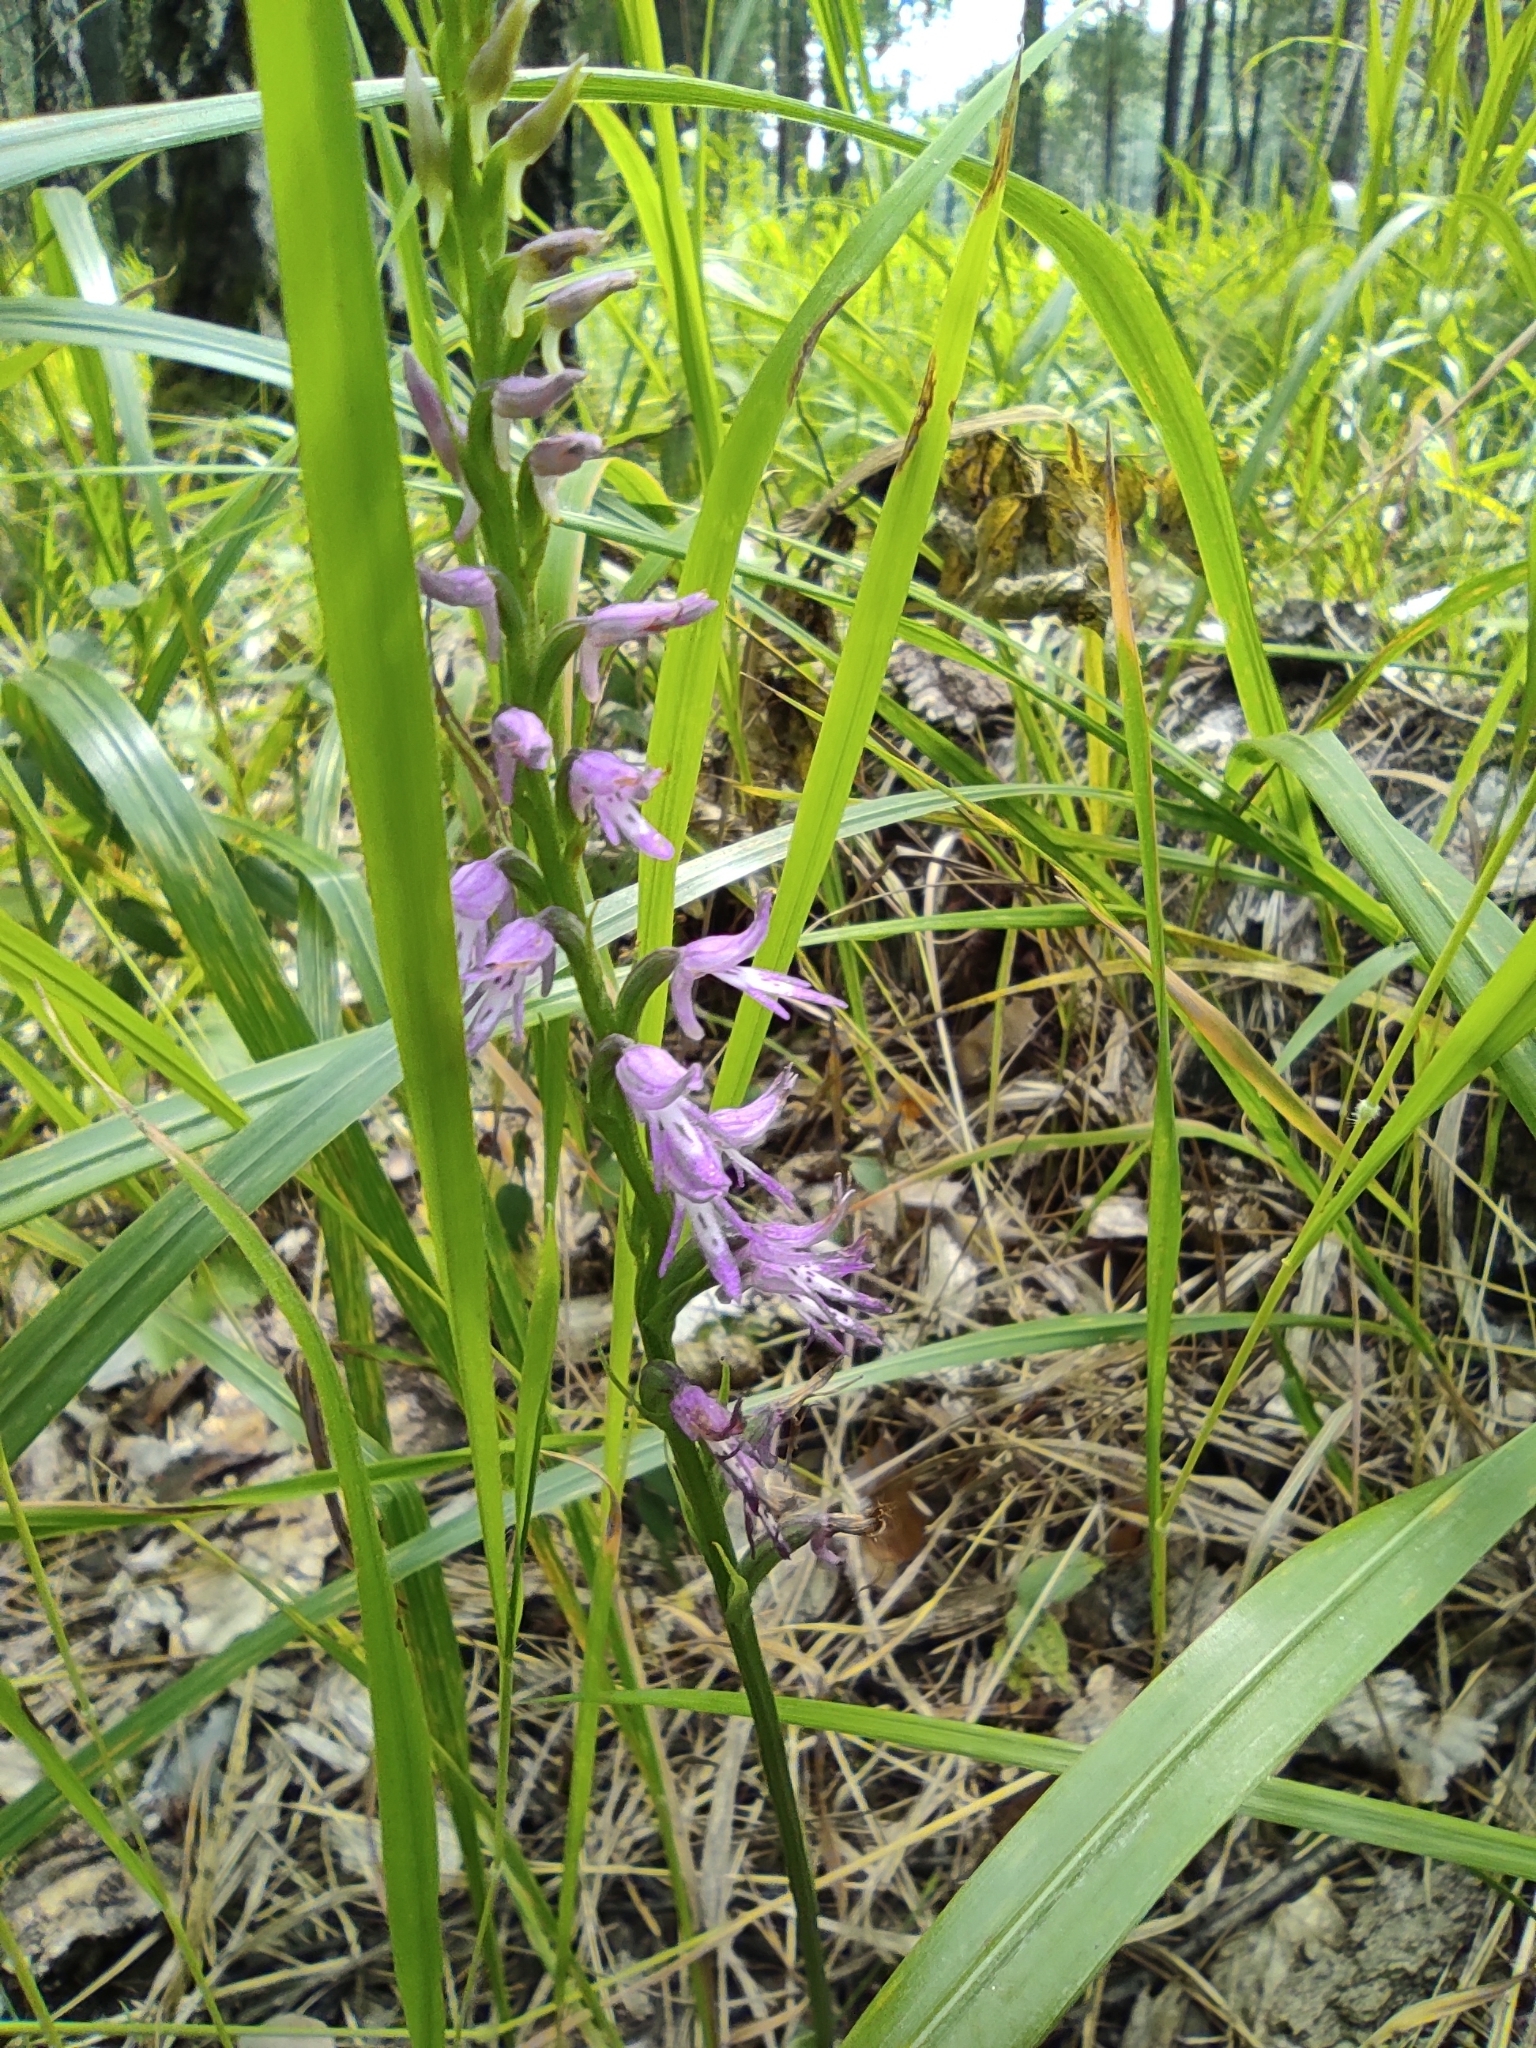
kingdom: Plantae
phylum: Tracheophyta
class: Liliopsida
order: Asparagales
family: Orchidaceae
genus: Hemipilia
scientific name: Hemipilia cucullata
